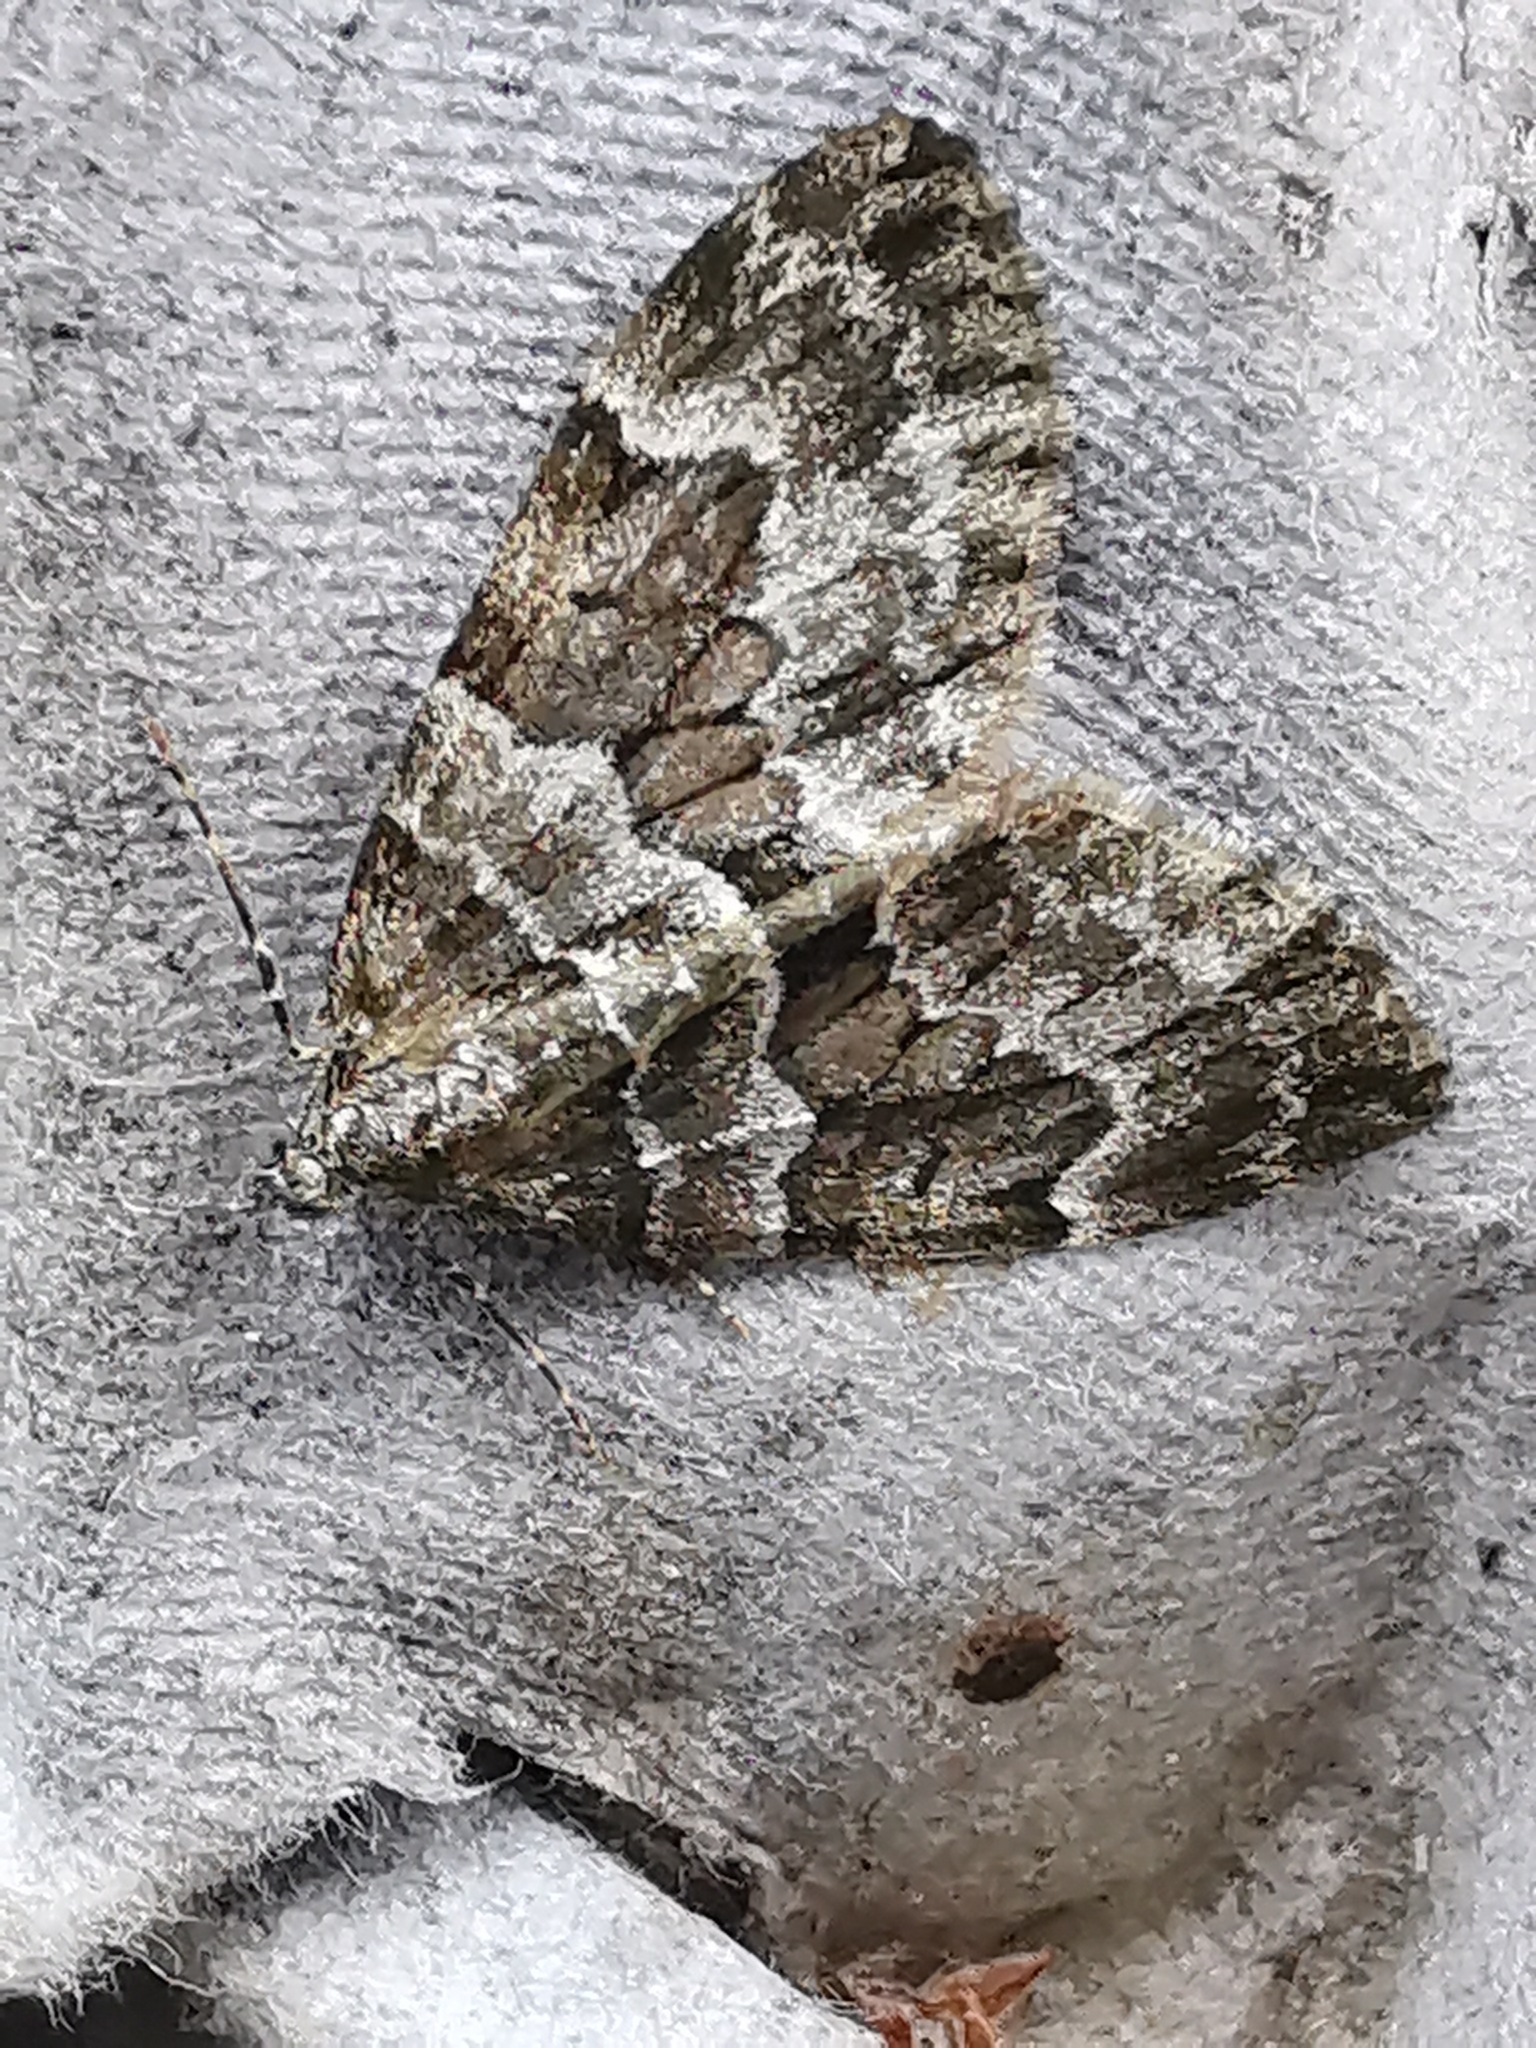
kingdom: Animalia
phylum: Arthropoda
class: Insecta
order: Lepidoptera
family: Geometridae
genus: Thera
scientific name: Thera britannica
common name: Spruce carpet
